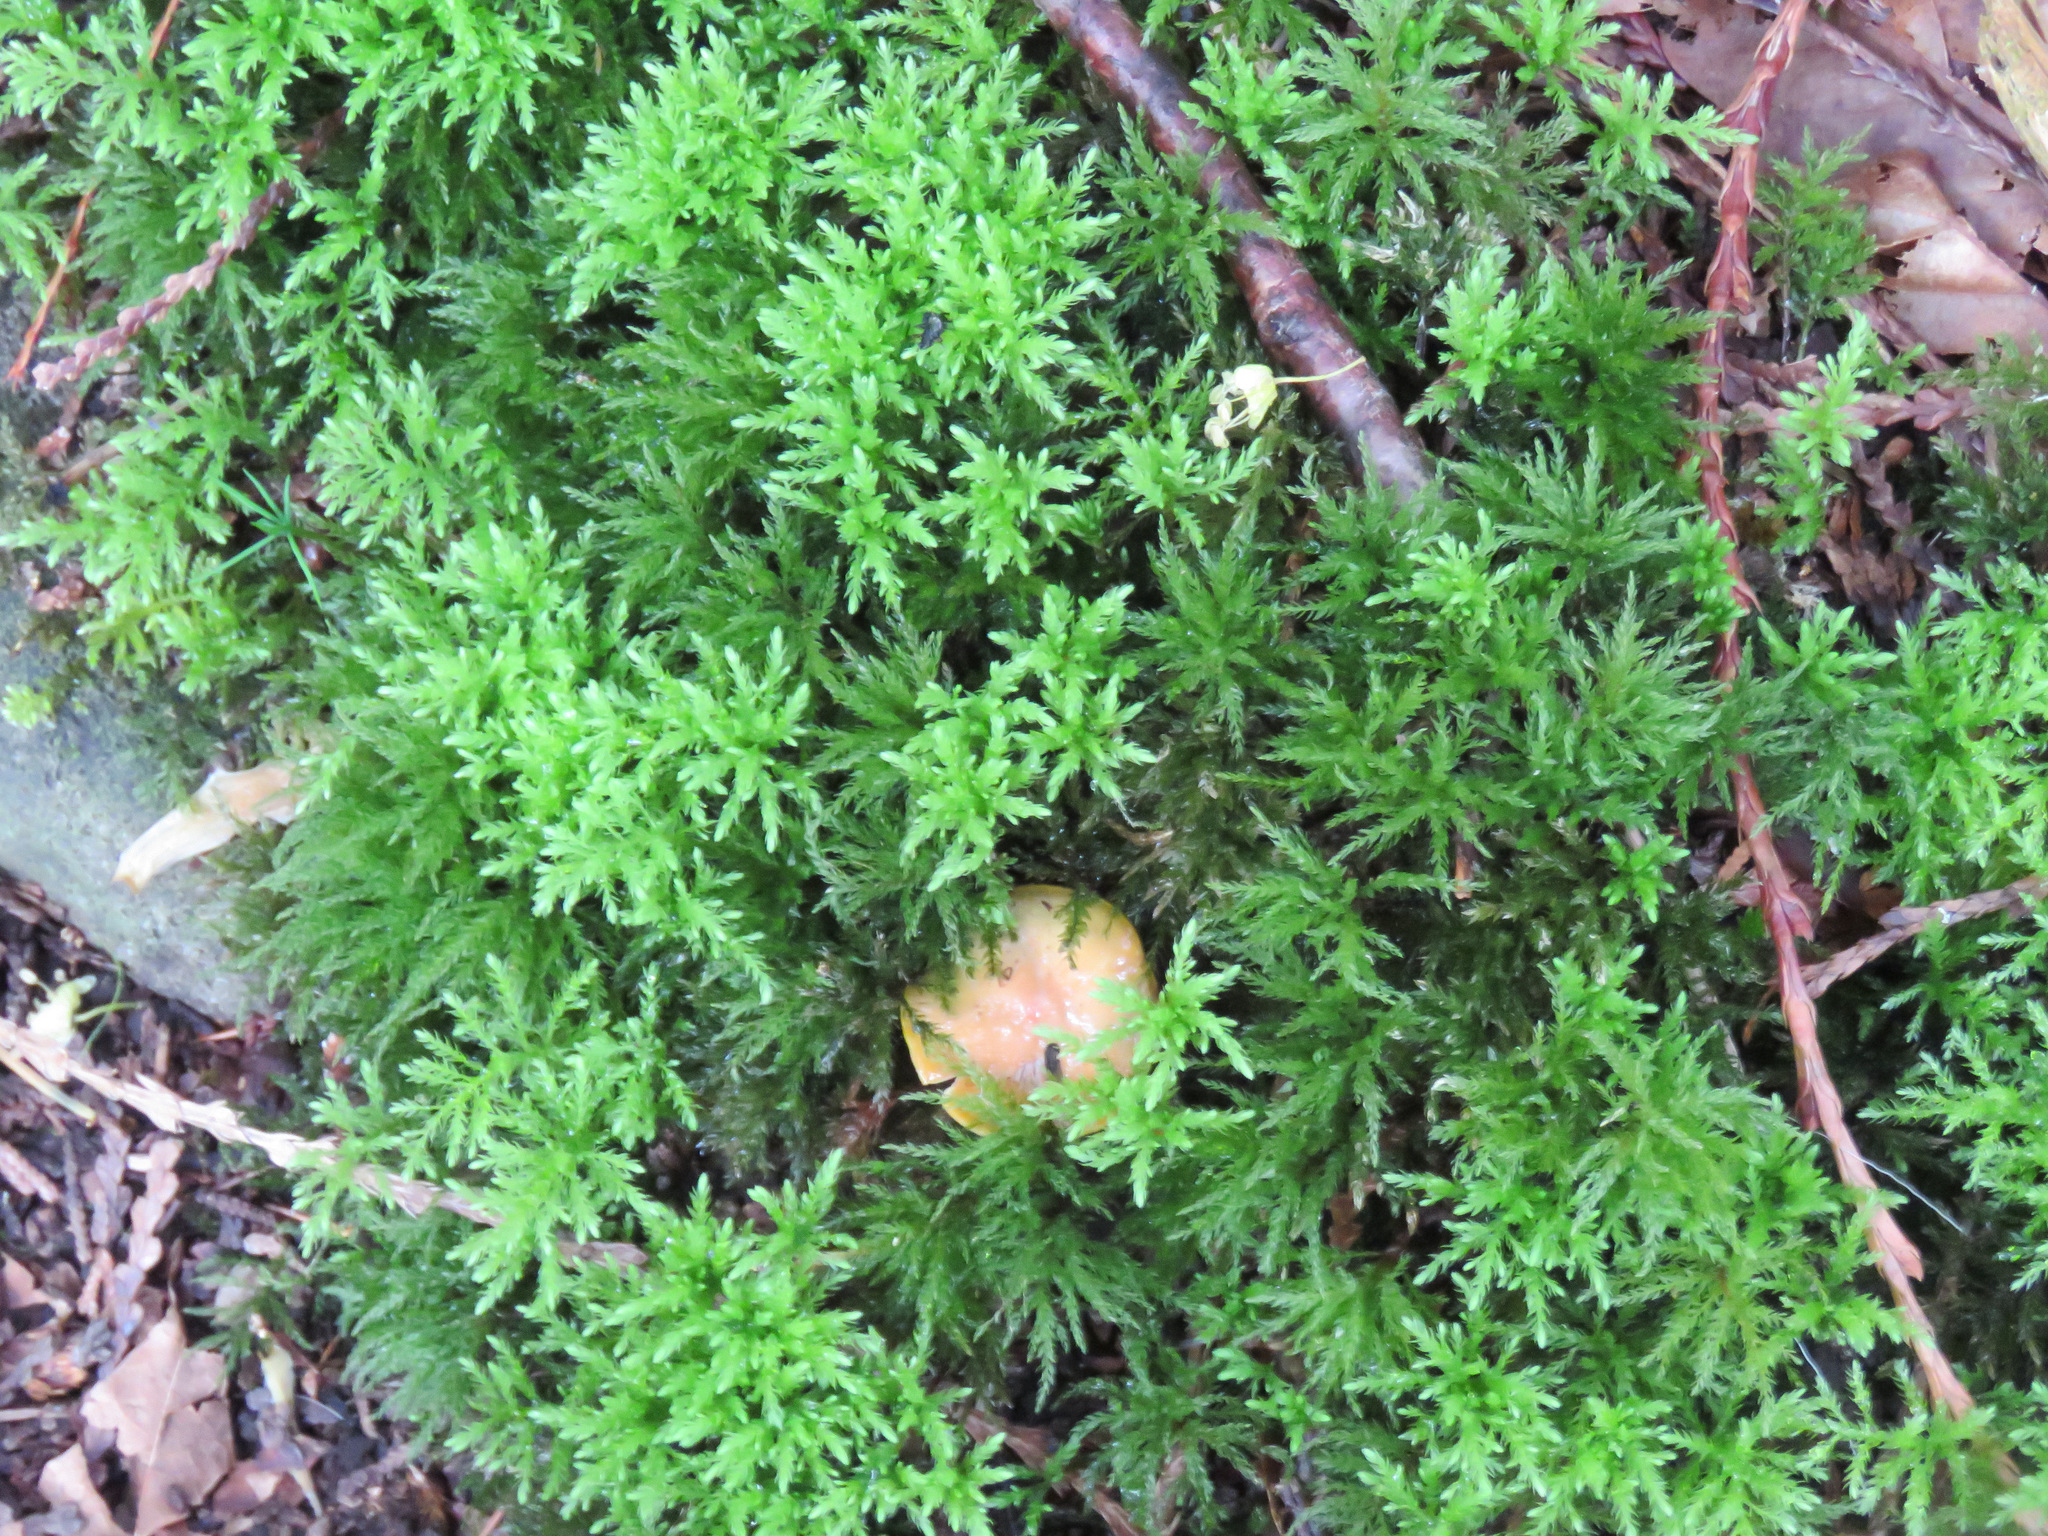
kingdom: Plantae
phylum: Bryophyta
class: Bryopsida
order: Bryales
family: Mniaceae
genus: Leucolepis
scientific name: Leucolepis acanthoneura
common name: Leucolepis umbrella moss
